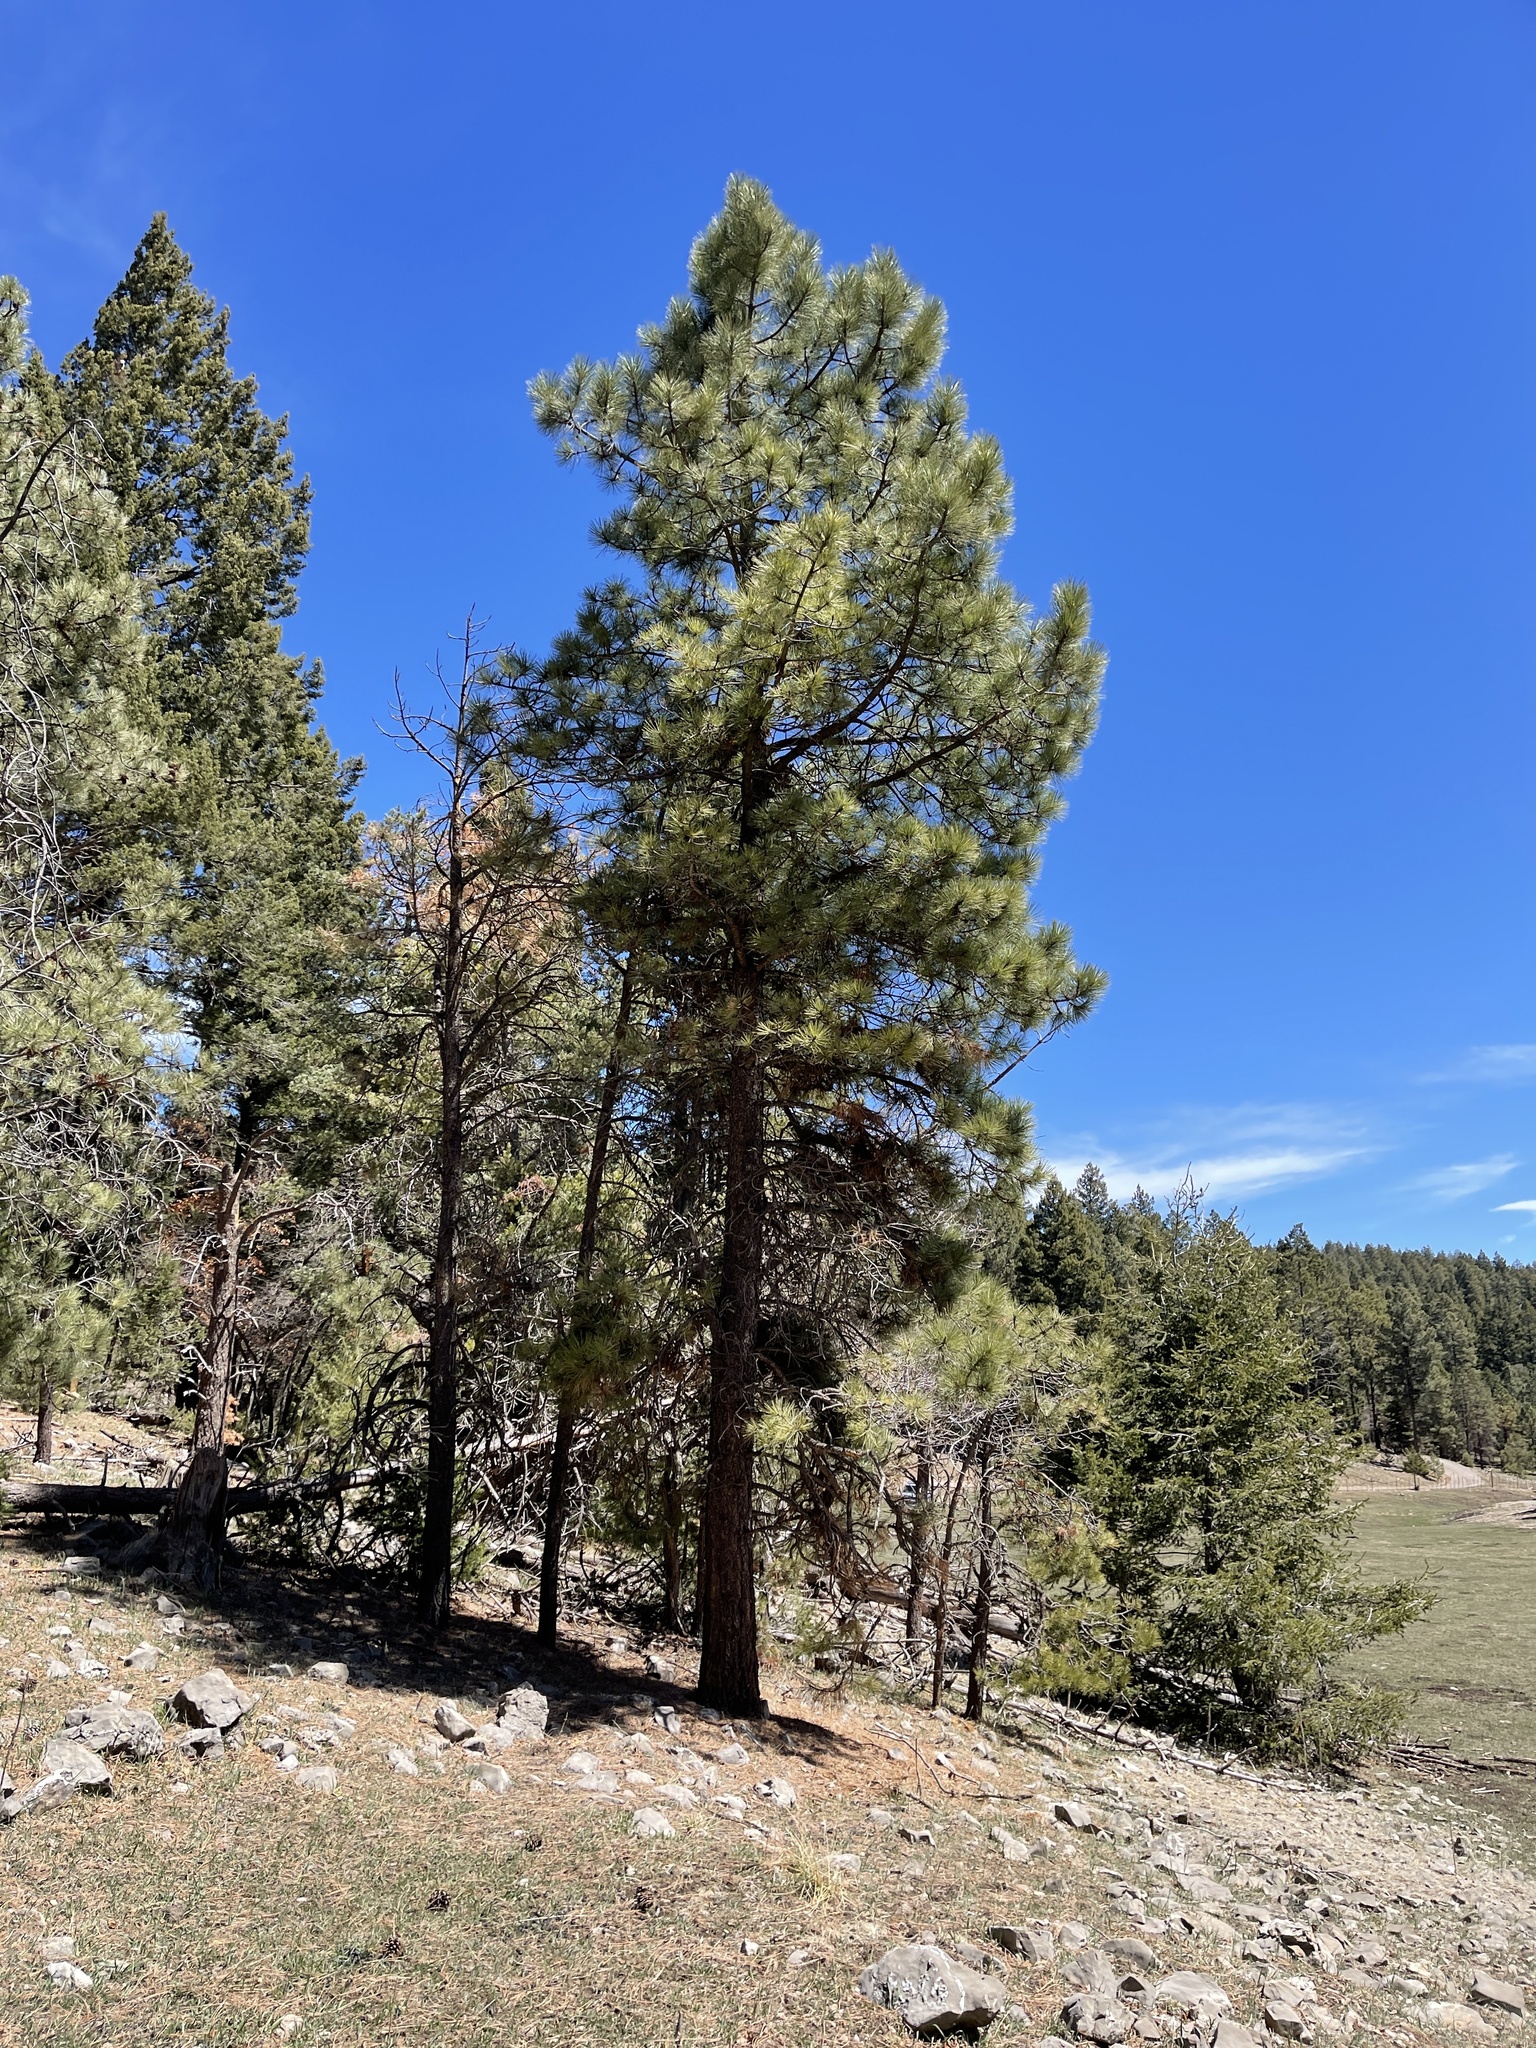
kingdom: Plantae
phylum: Tracheophyta
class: Pinopsida
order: Pinales
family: Pinaceae
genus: Pinus
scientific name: Pinus ponderosa
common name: Western yellow-pine
